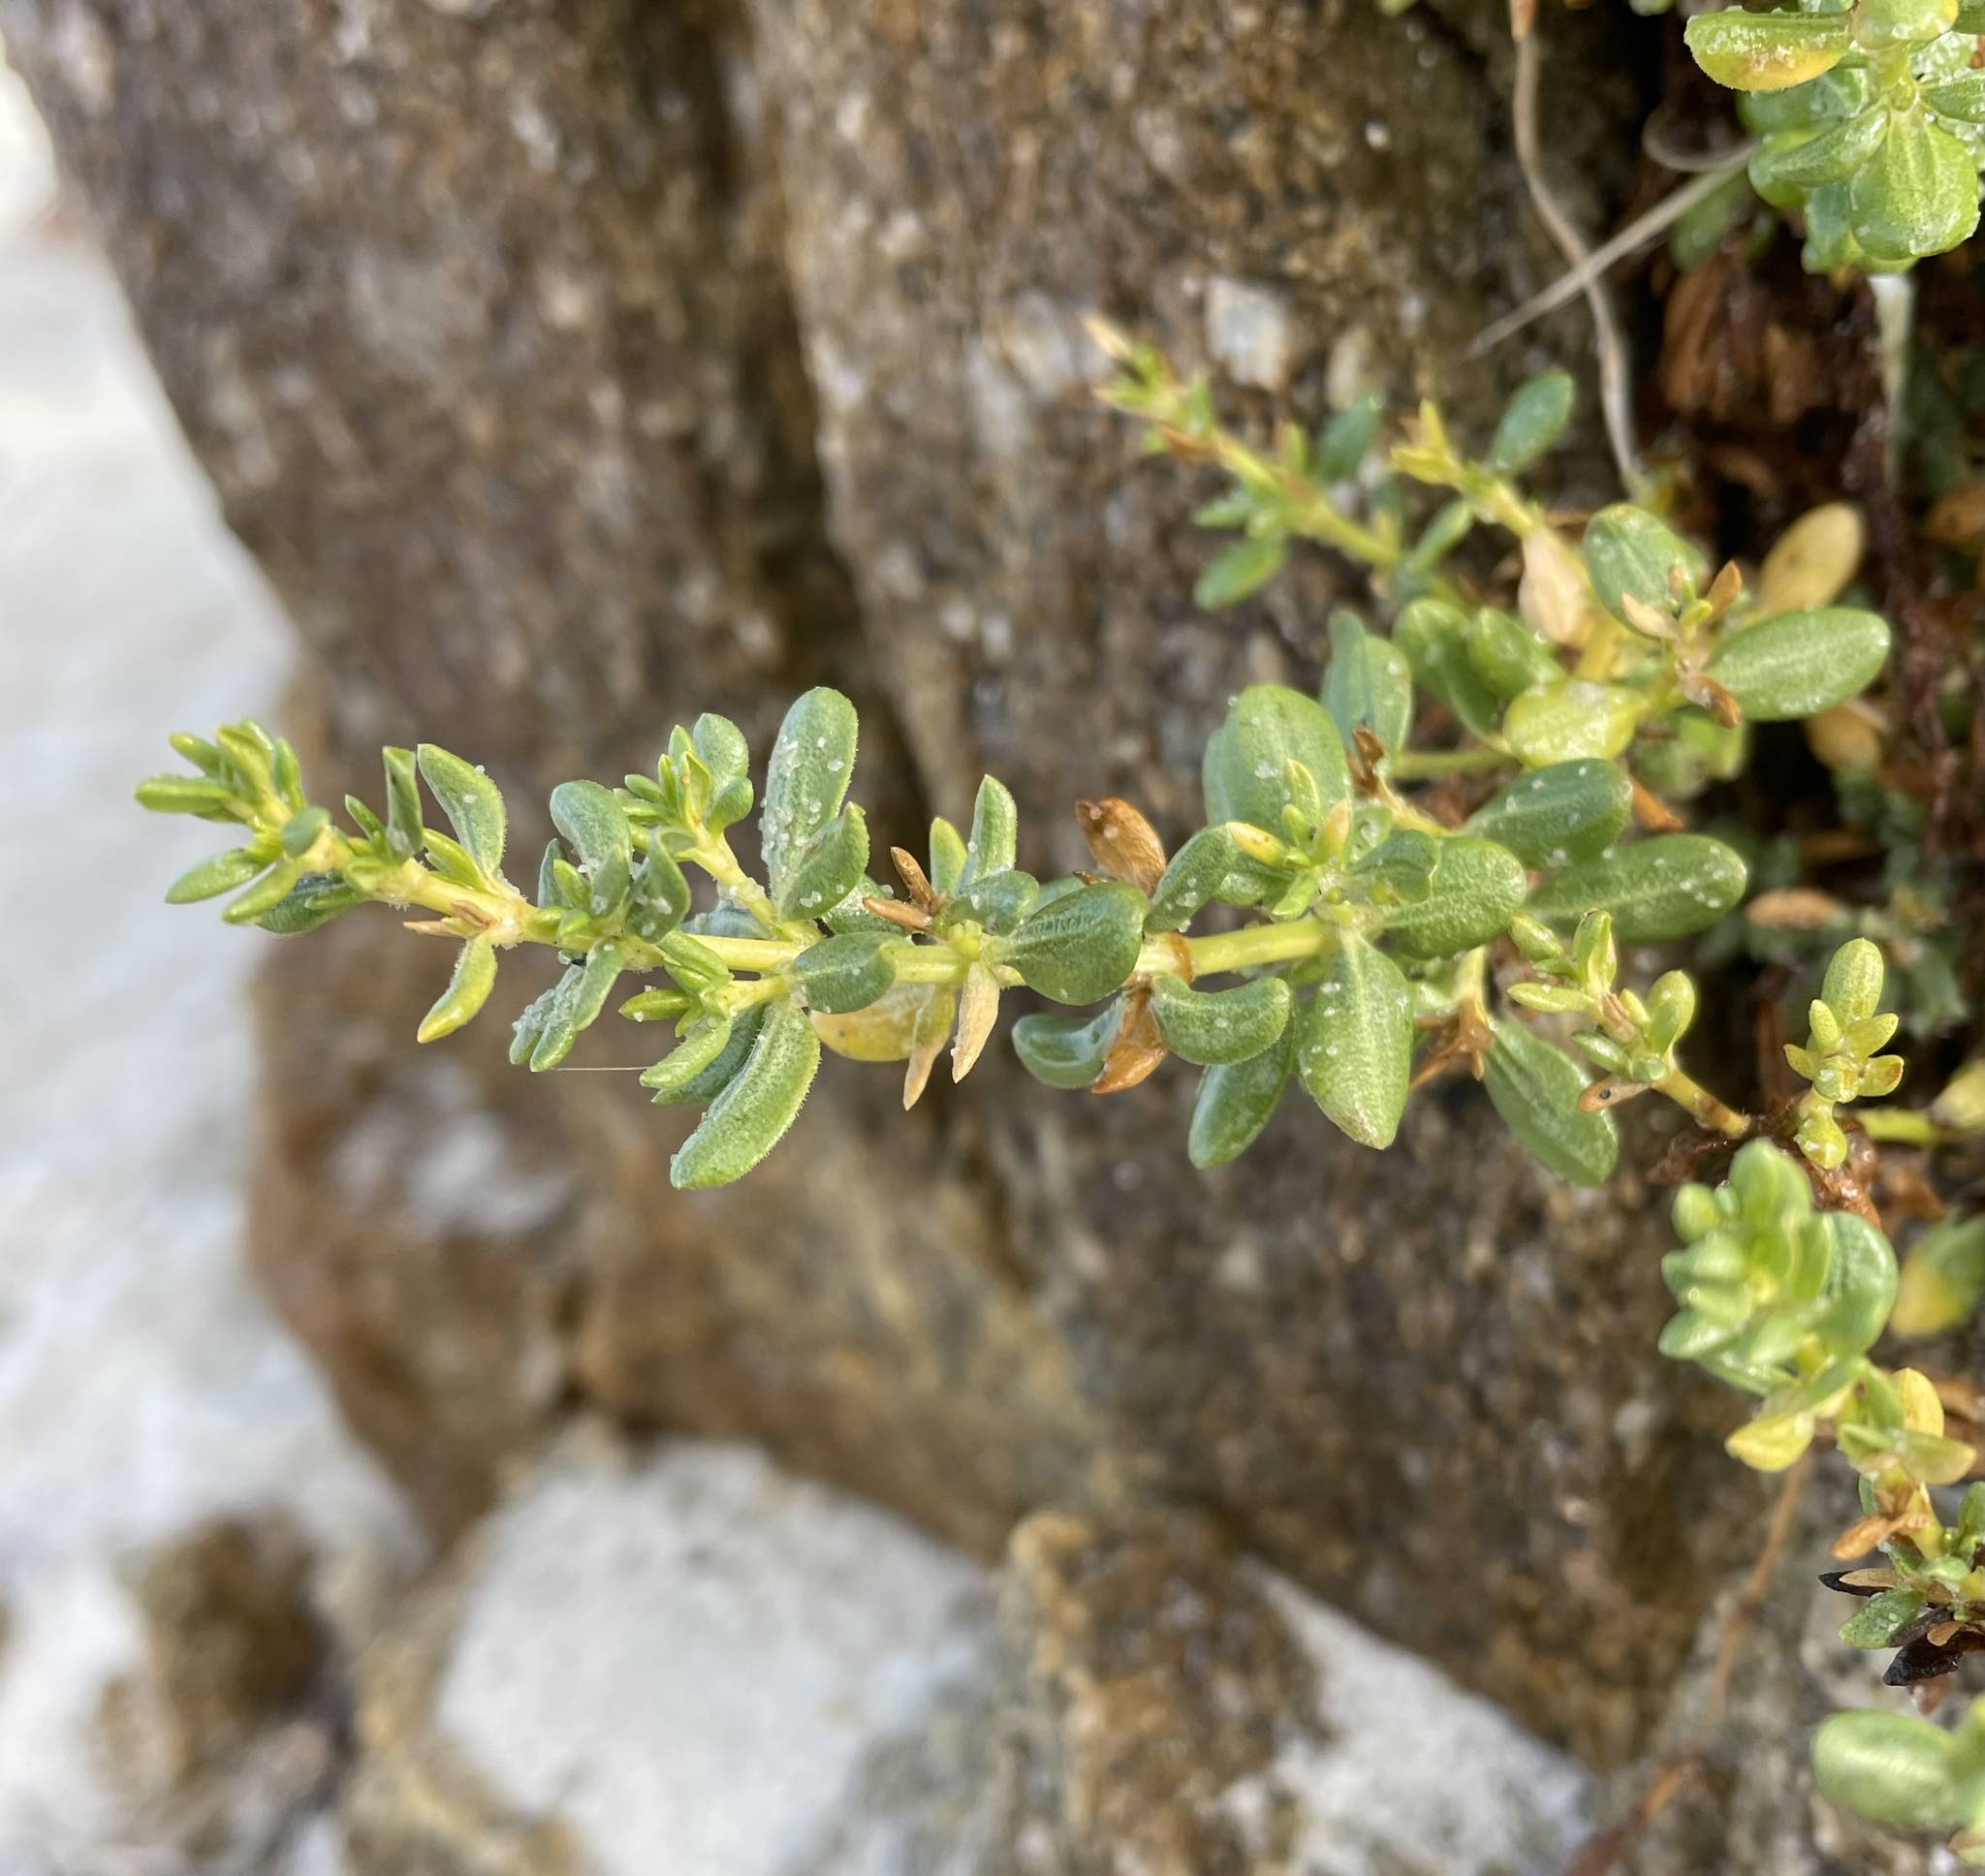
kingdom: Plantae
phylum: Tracheophyta
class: Magnoliopsida
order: Caryophyllales
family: Frankeniaceae
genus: Frankenia
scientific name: Frankenia salina
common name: Alkali seaheath
